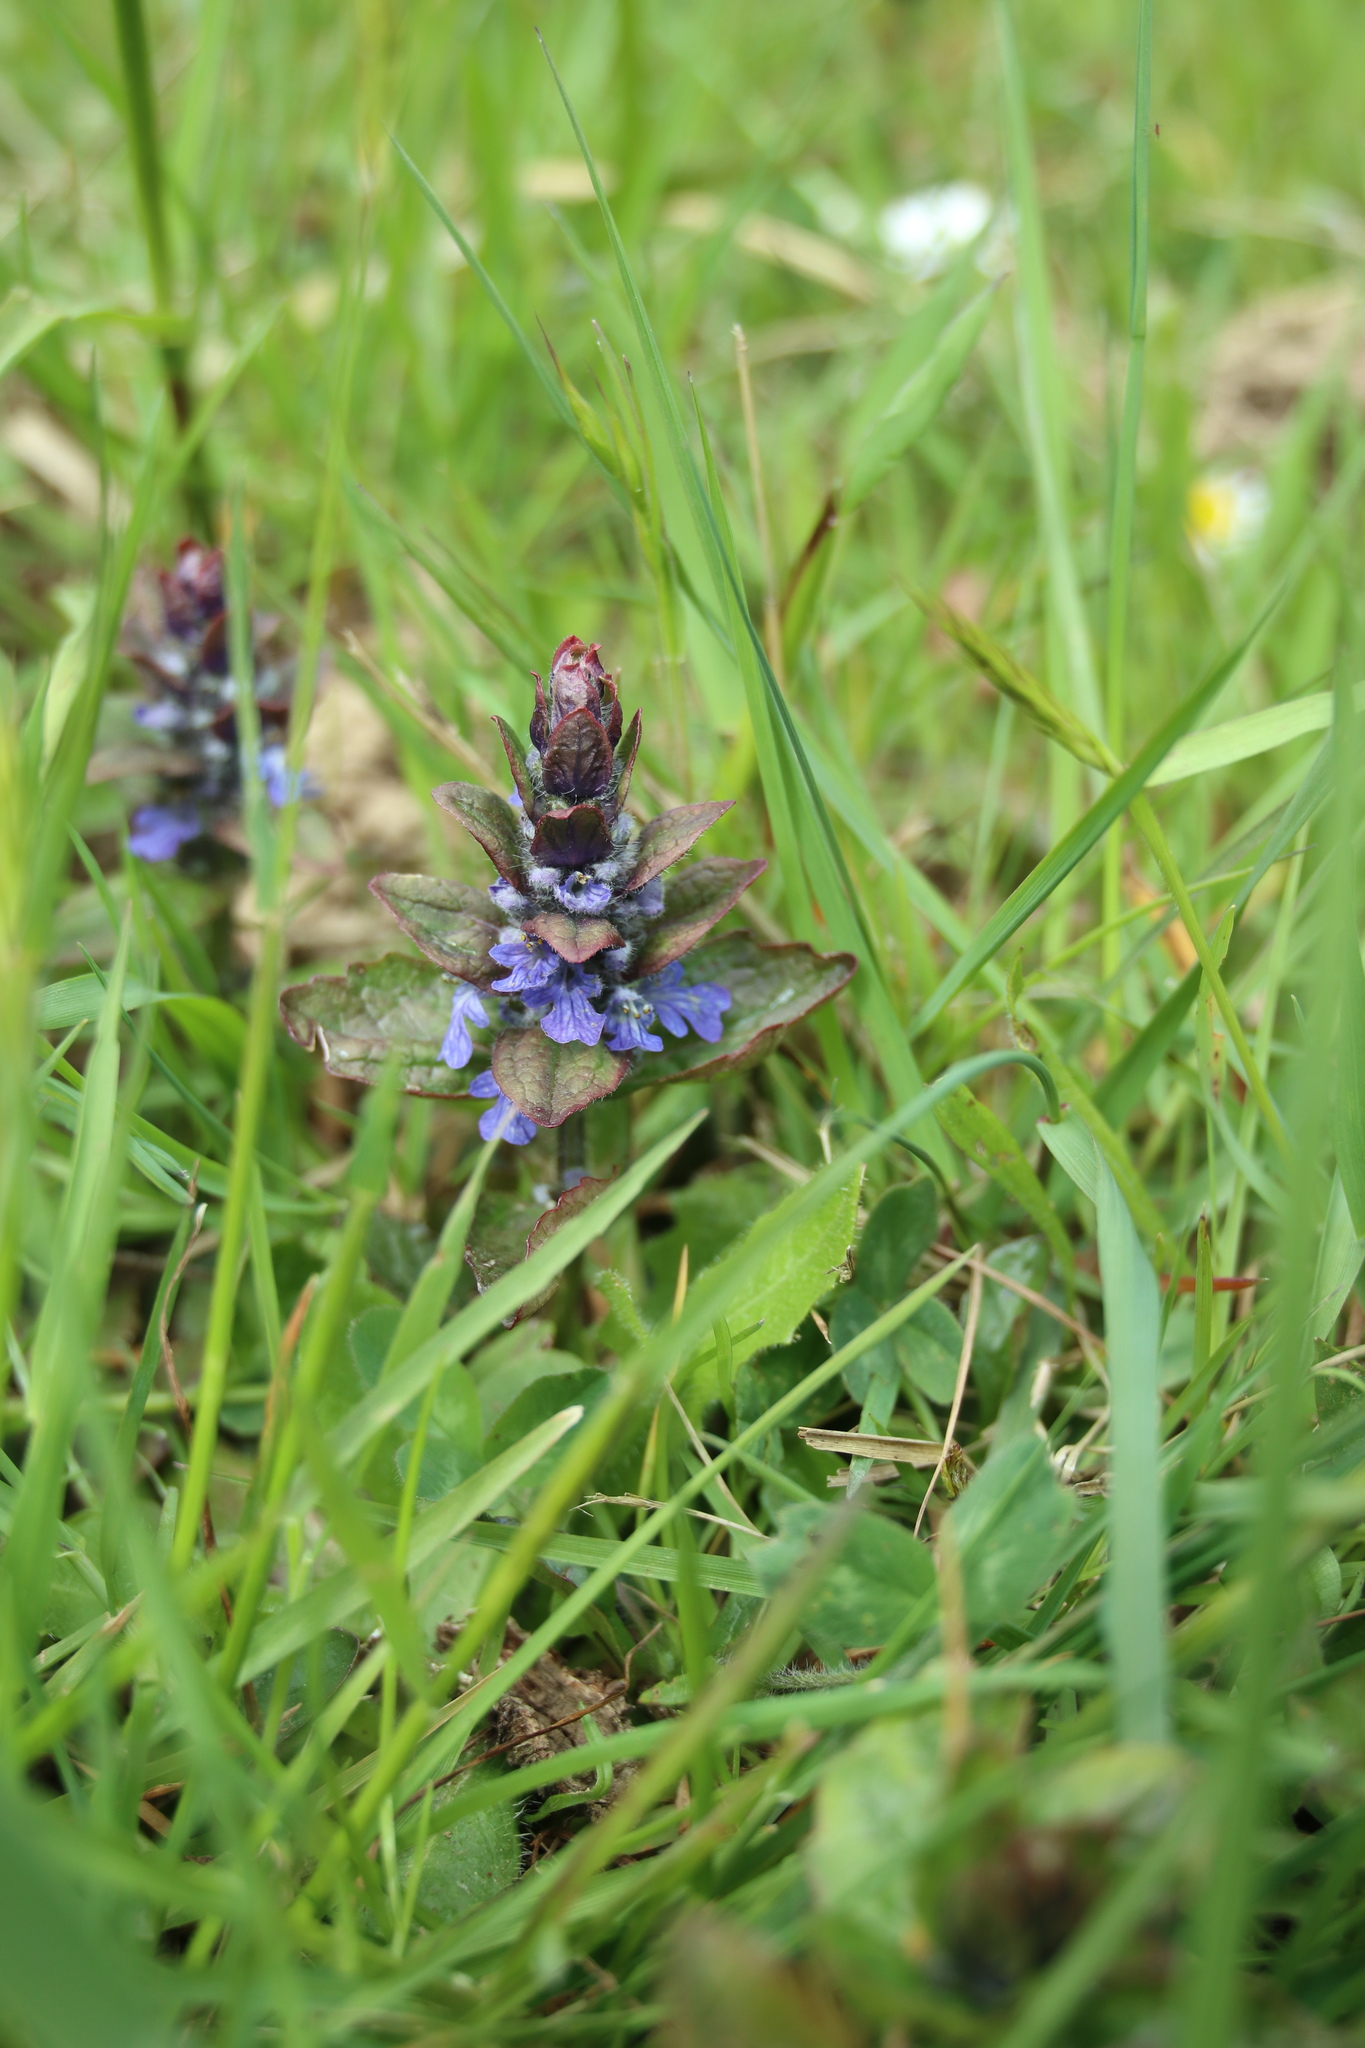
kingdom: Plantae
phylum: Tracheophyta
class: Magnoliopsida
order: Lamiales
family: Lamiaceae
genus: Ajuga
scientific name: Ajuga reptans
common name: Bugle
